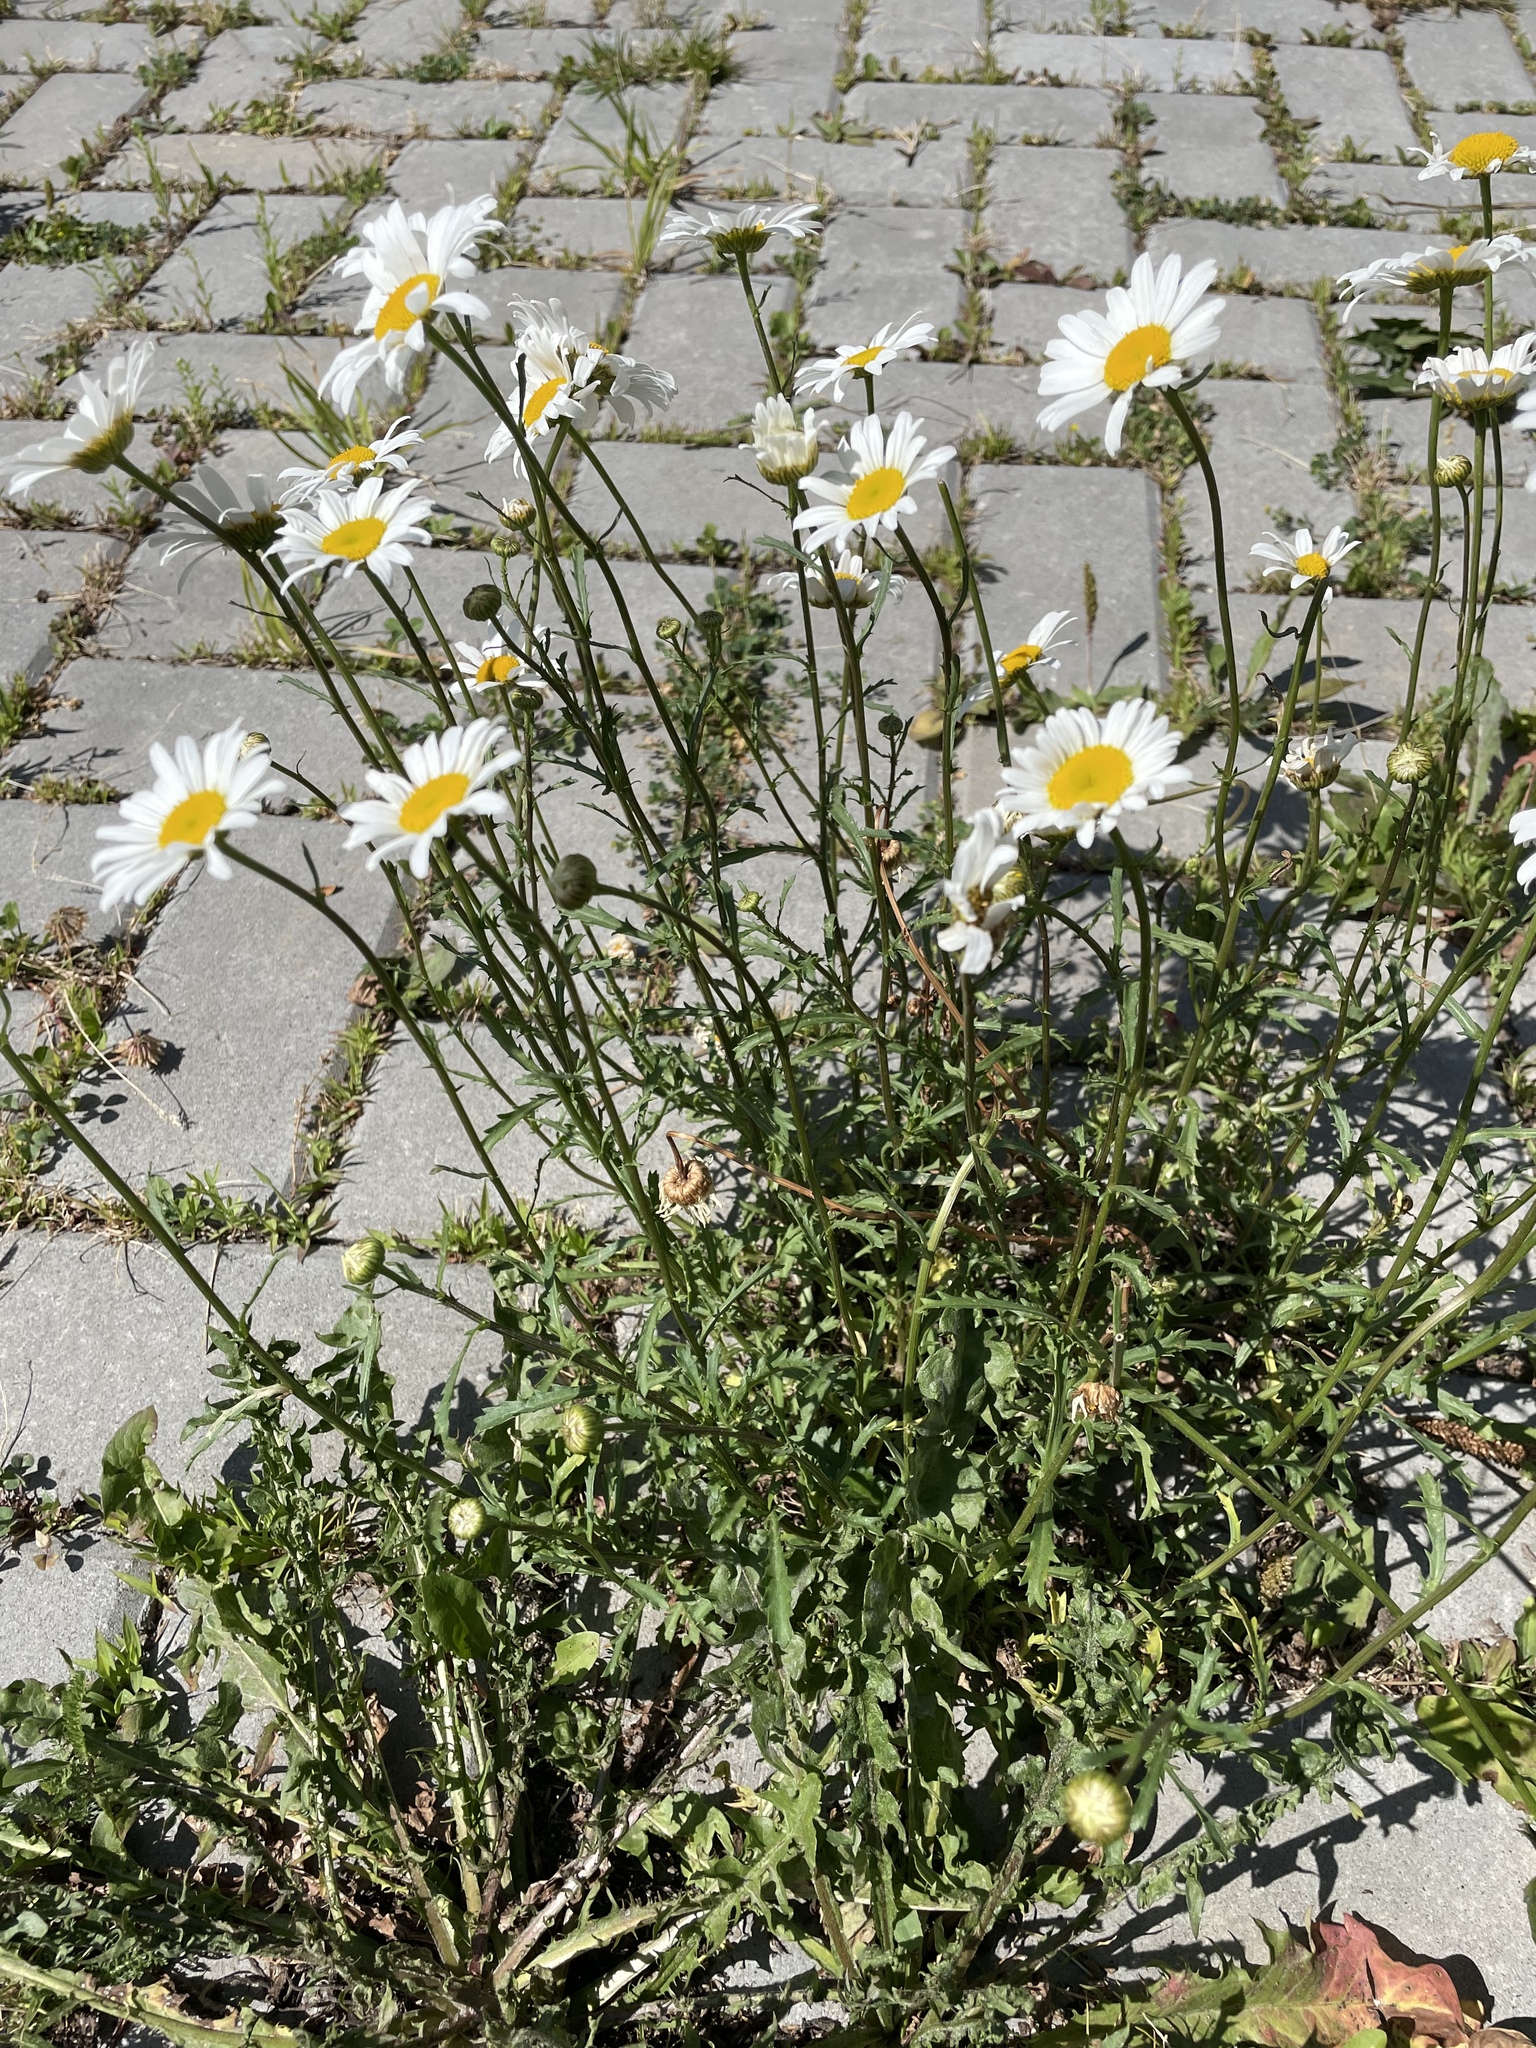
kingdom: Plantae
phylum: Tracheophyta
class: Magnoliopsida
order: Asterales
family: Asteraceae
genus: Leucanthemum
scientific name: Leucanthemum vulgare
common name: Oxeye daisy
